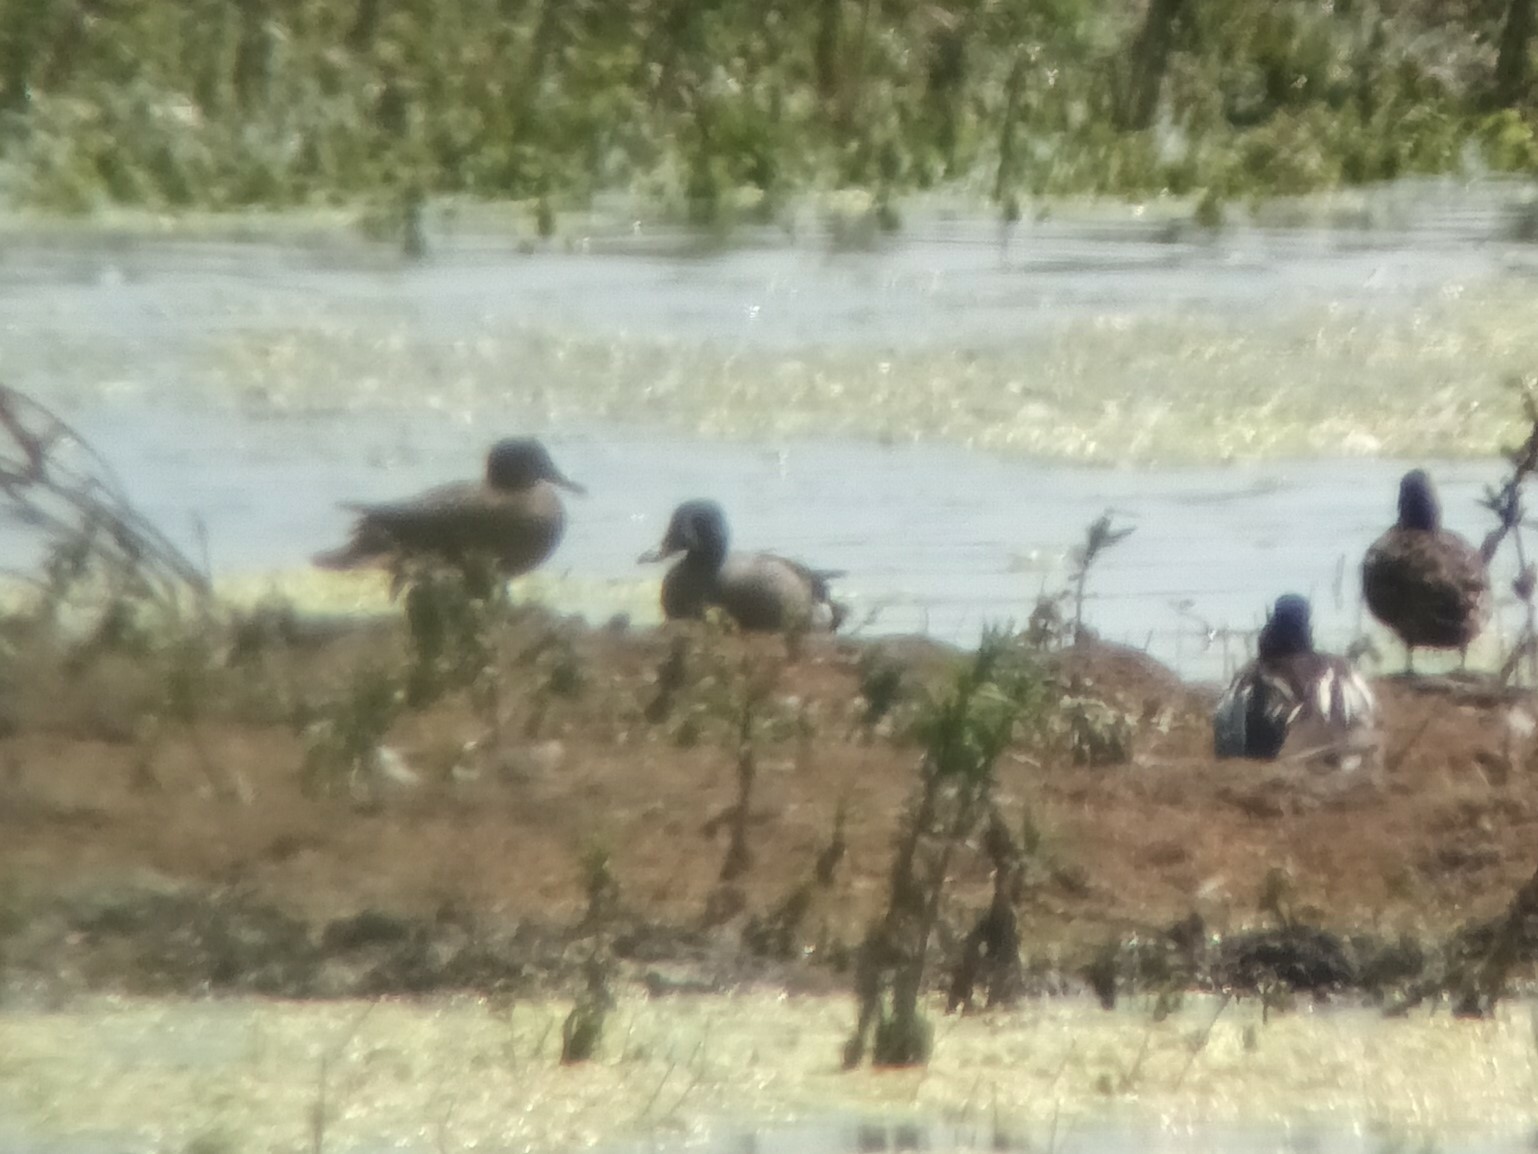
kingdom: Animalia
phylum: Chordata
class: Aves
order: Anseriformes
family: Anatidae
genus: Spatula
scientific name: Spatula discors
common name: Blue-winged teal
